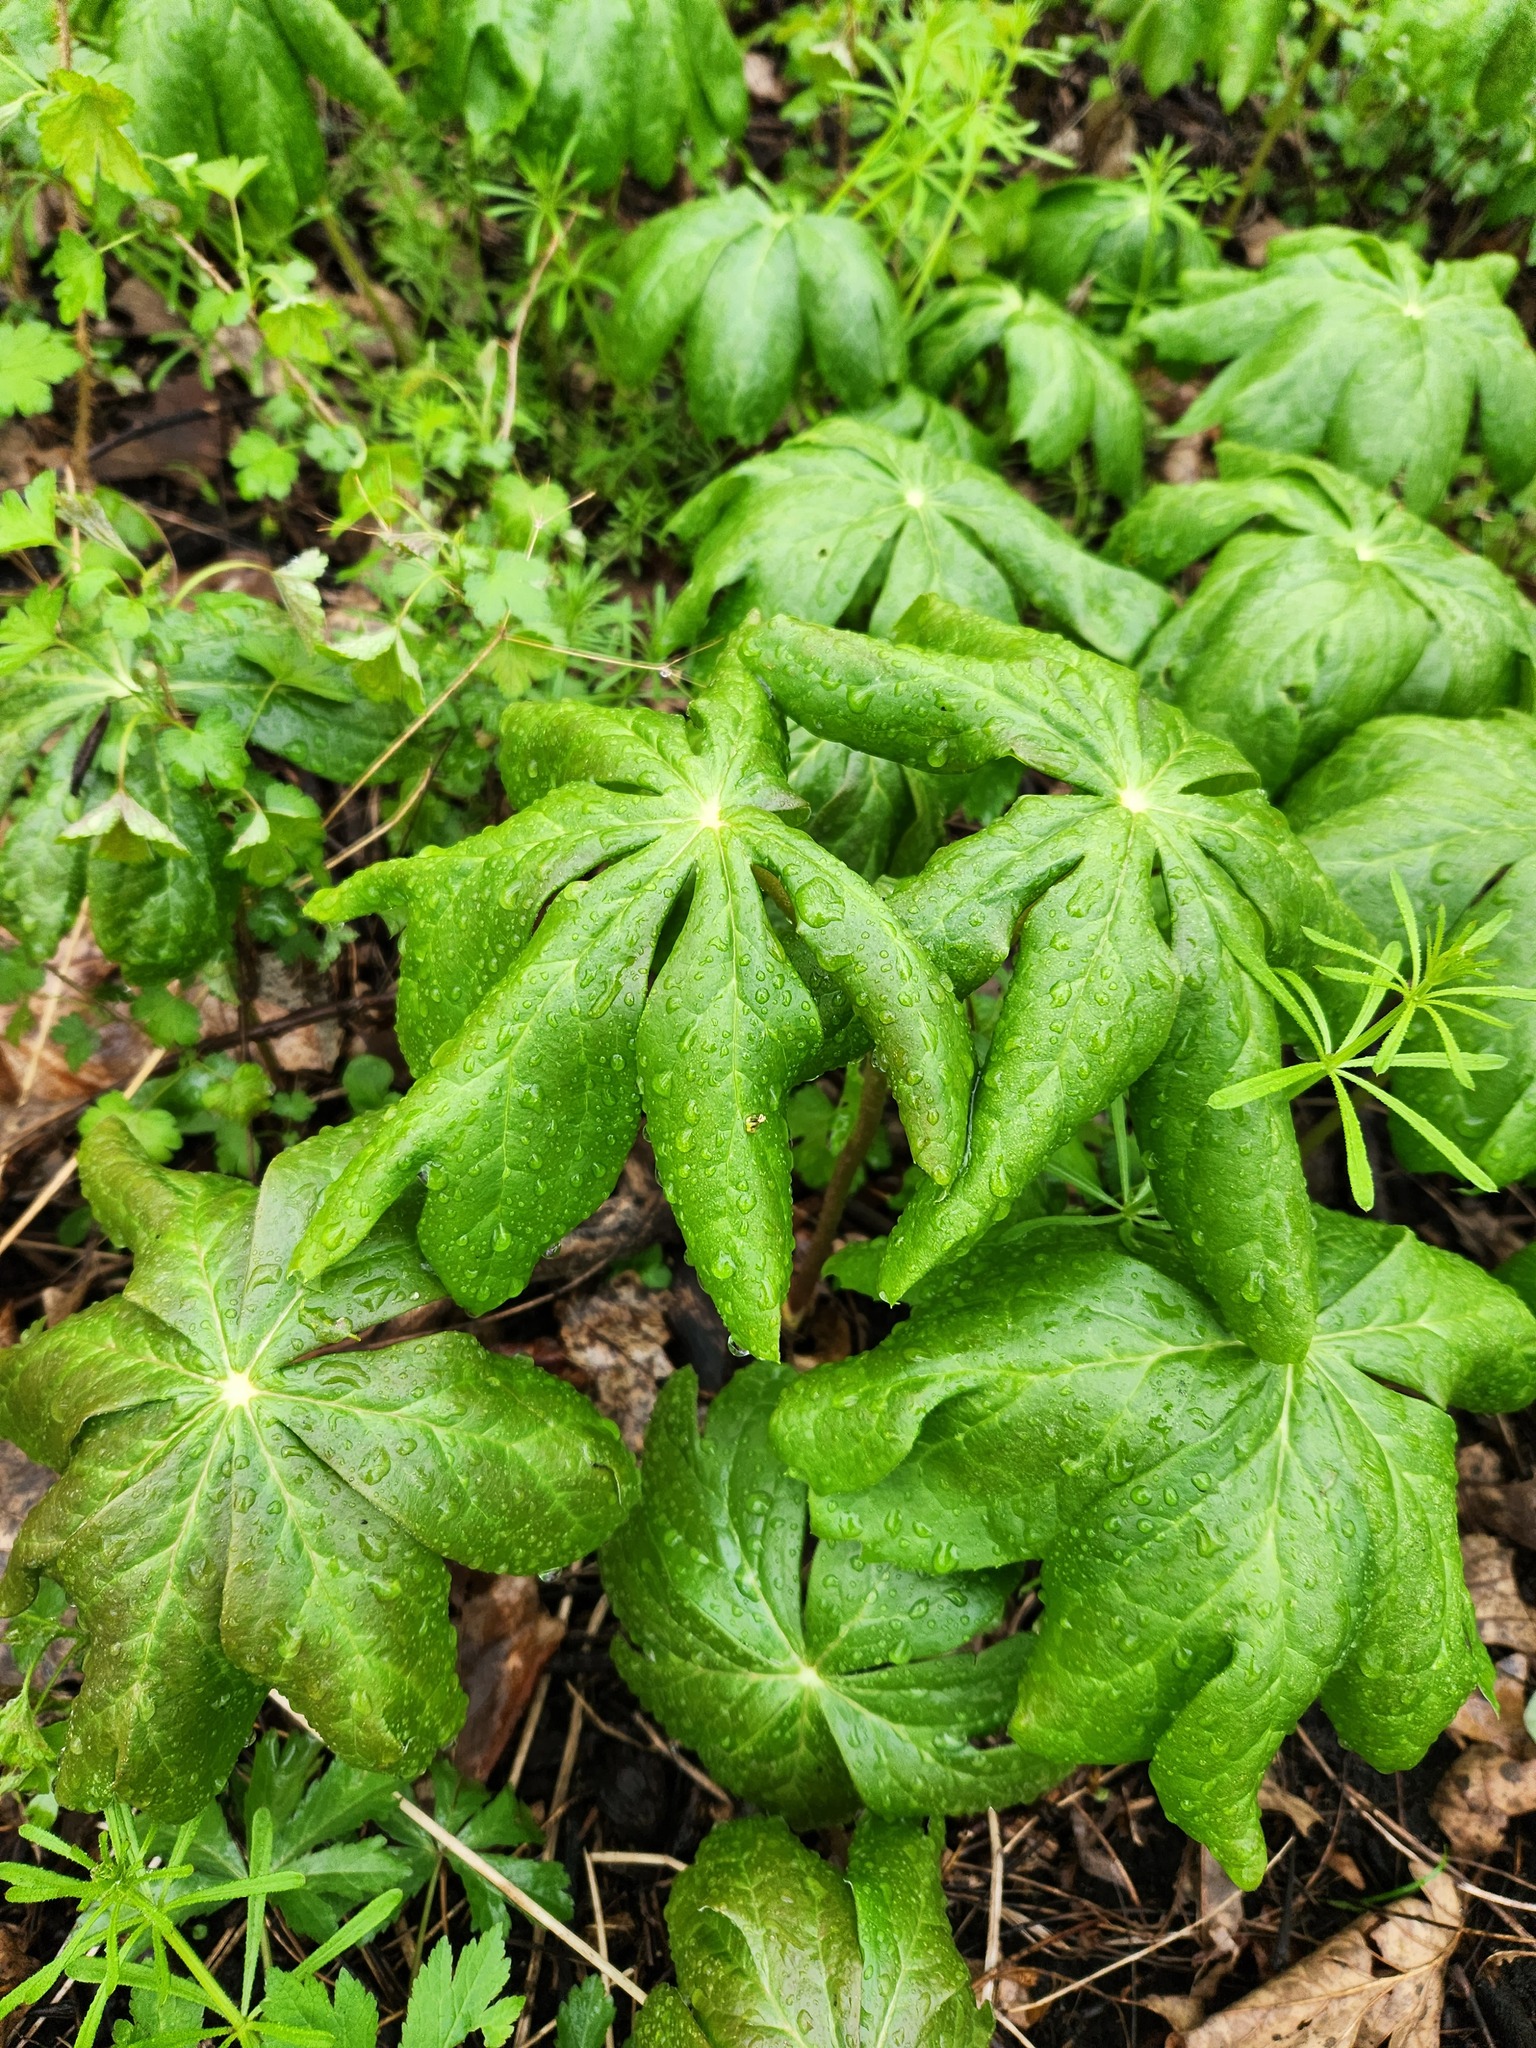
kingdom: Plantae
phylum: Tracheophyta
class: Magnoliopsida
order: Ranunculales
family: Berberidaceae
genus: Podophyllum
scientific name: Podophyllum peltatum
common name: Wild mandrake
